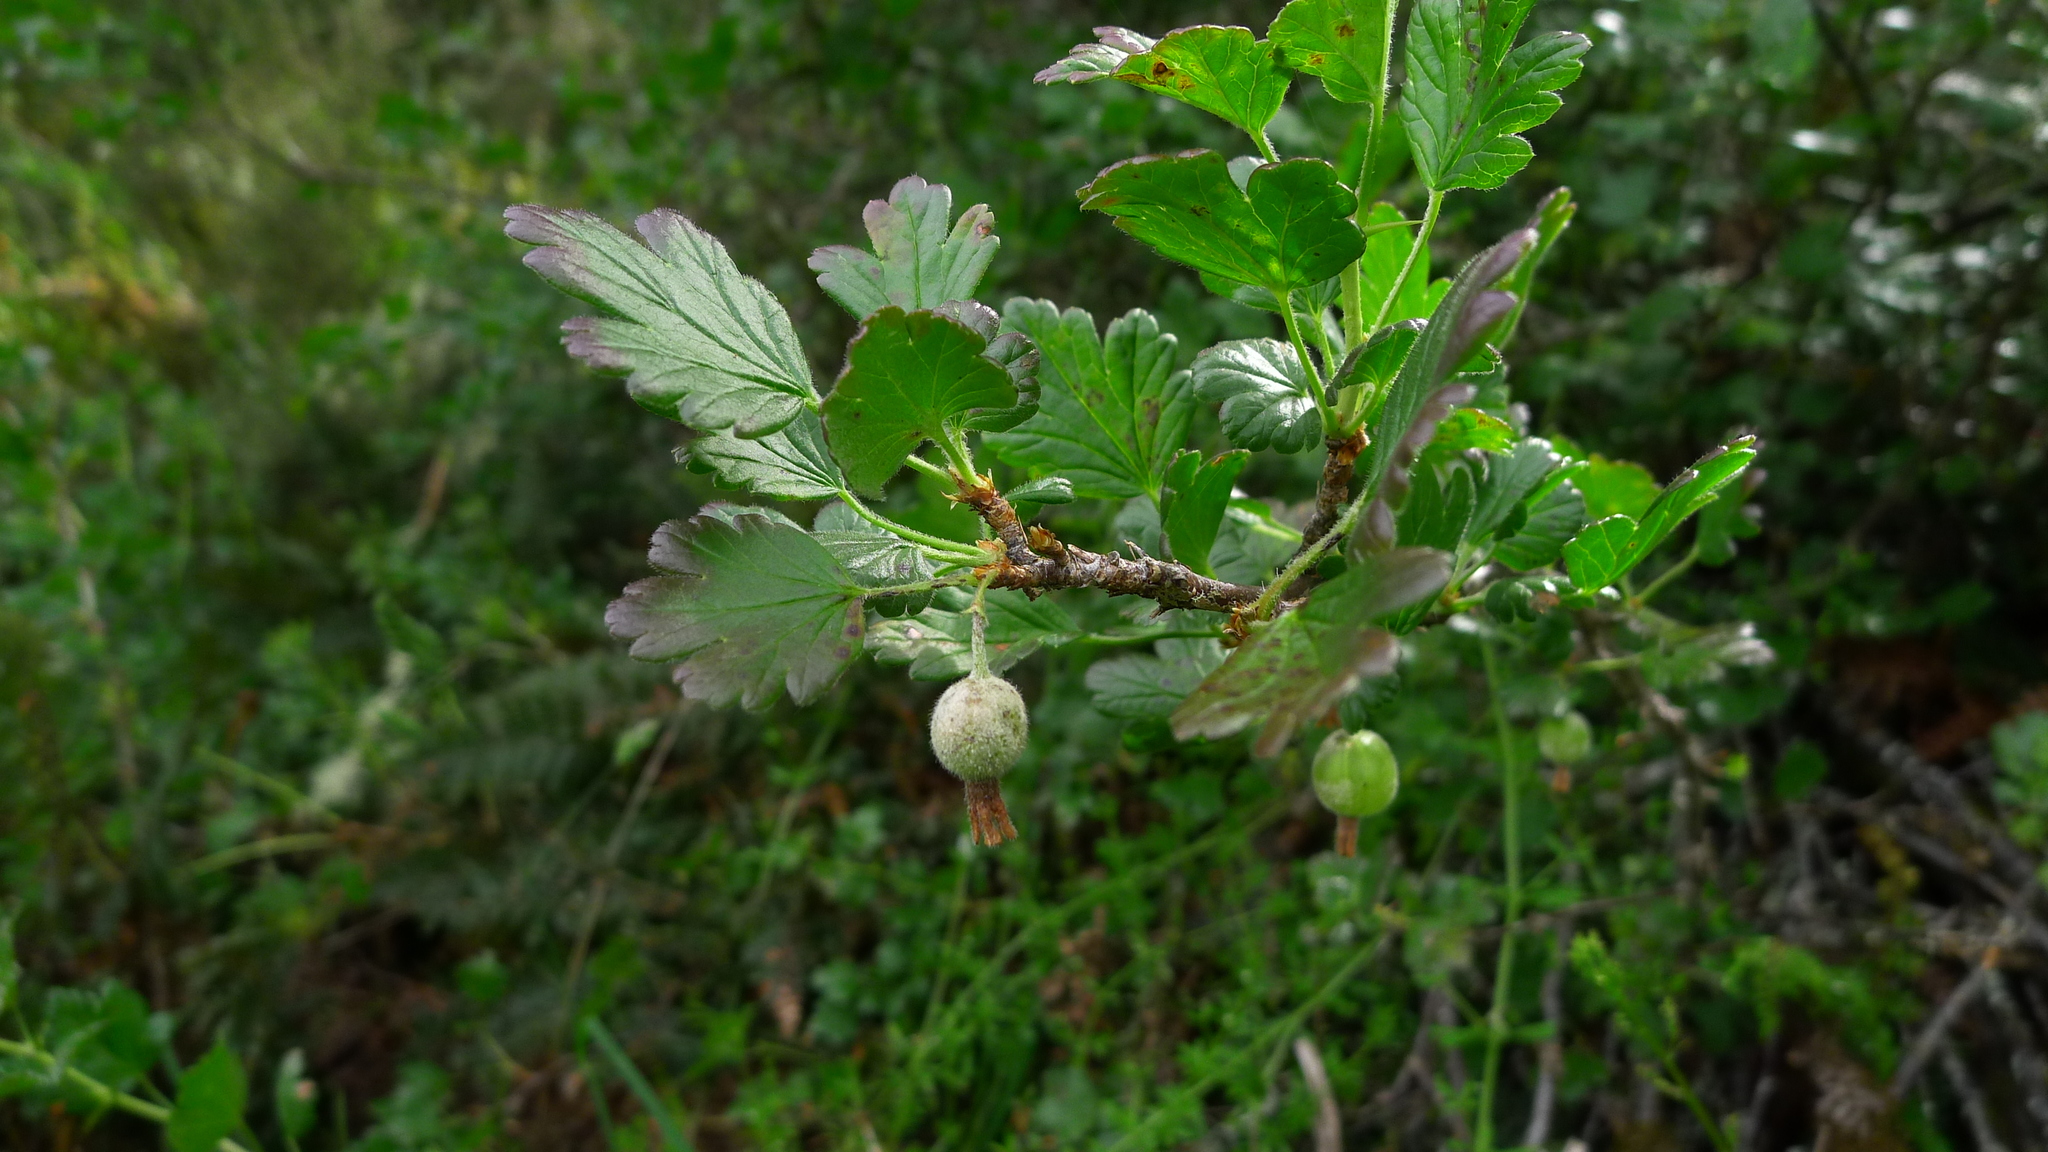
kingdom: Plantae
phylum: Tracheophyta
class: Magnoliopsida
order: Saxifragales
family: Grossulariaceae
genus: Ribes
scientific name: Ribes uva-crispa
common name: Gooseberry
